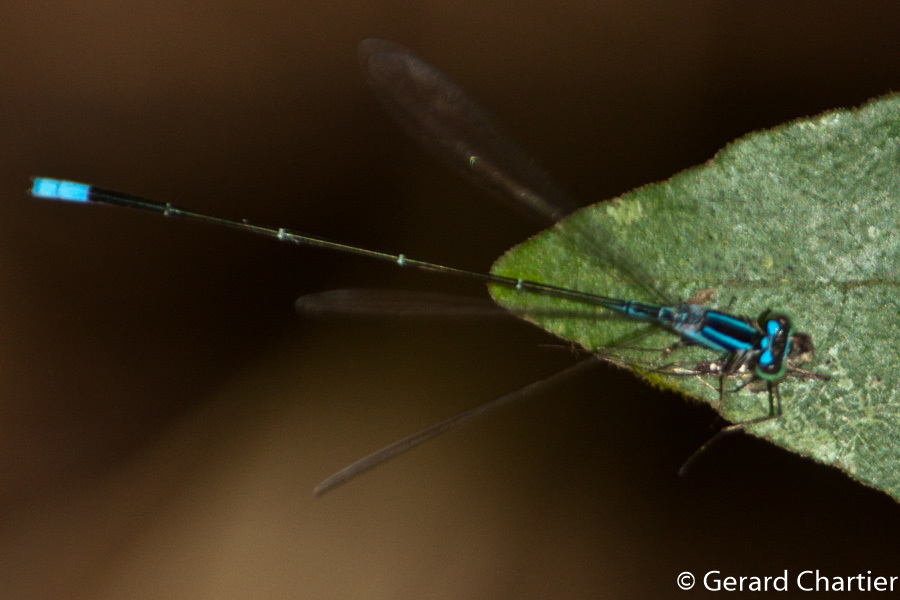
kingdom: Animalia
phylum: Arthropoda
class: Insecta
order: Odonata
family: Coenagrionidae
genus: Aciagrion
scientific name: Aciagrion hisopa
